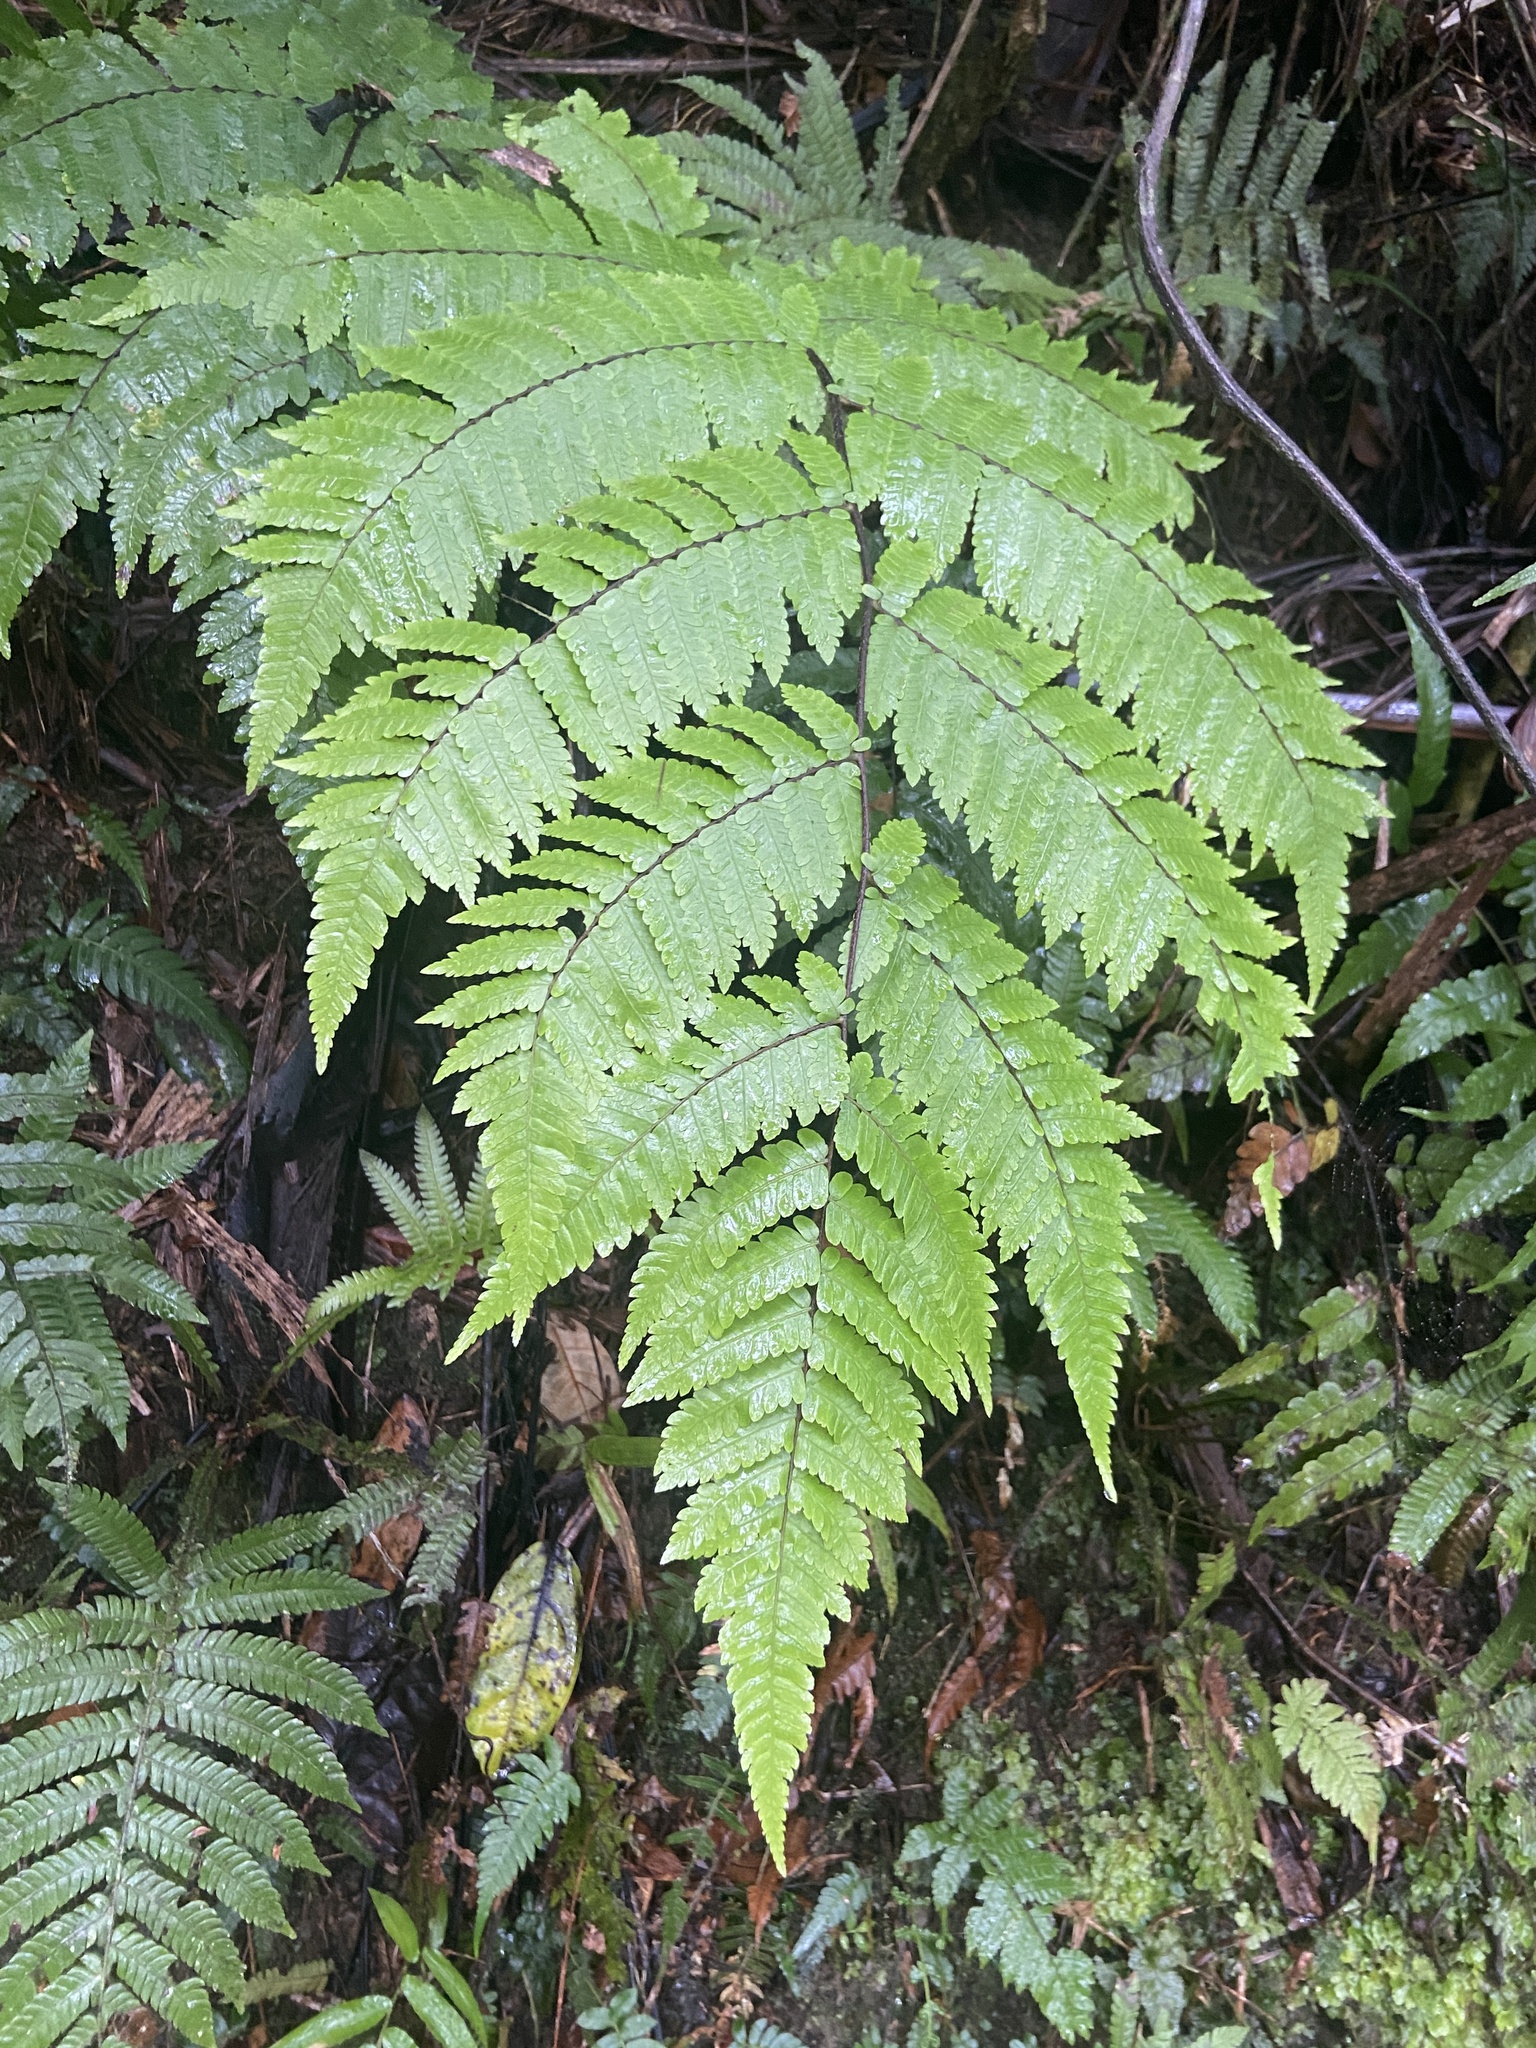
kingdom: Plantae
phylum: Tracheophyta
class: Polypodiopsida
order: Cyatheales
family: Cyatheaceae
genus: Cyathea
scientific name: Cyathea borinquena
